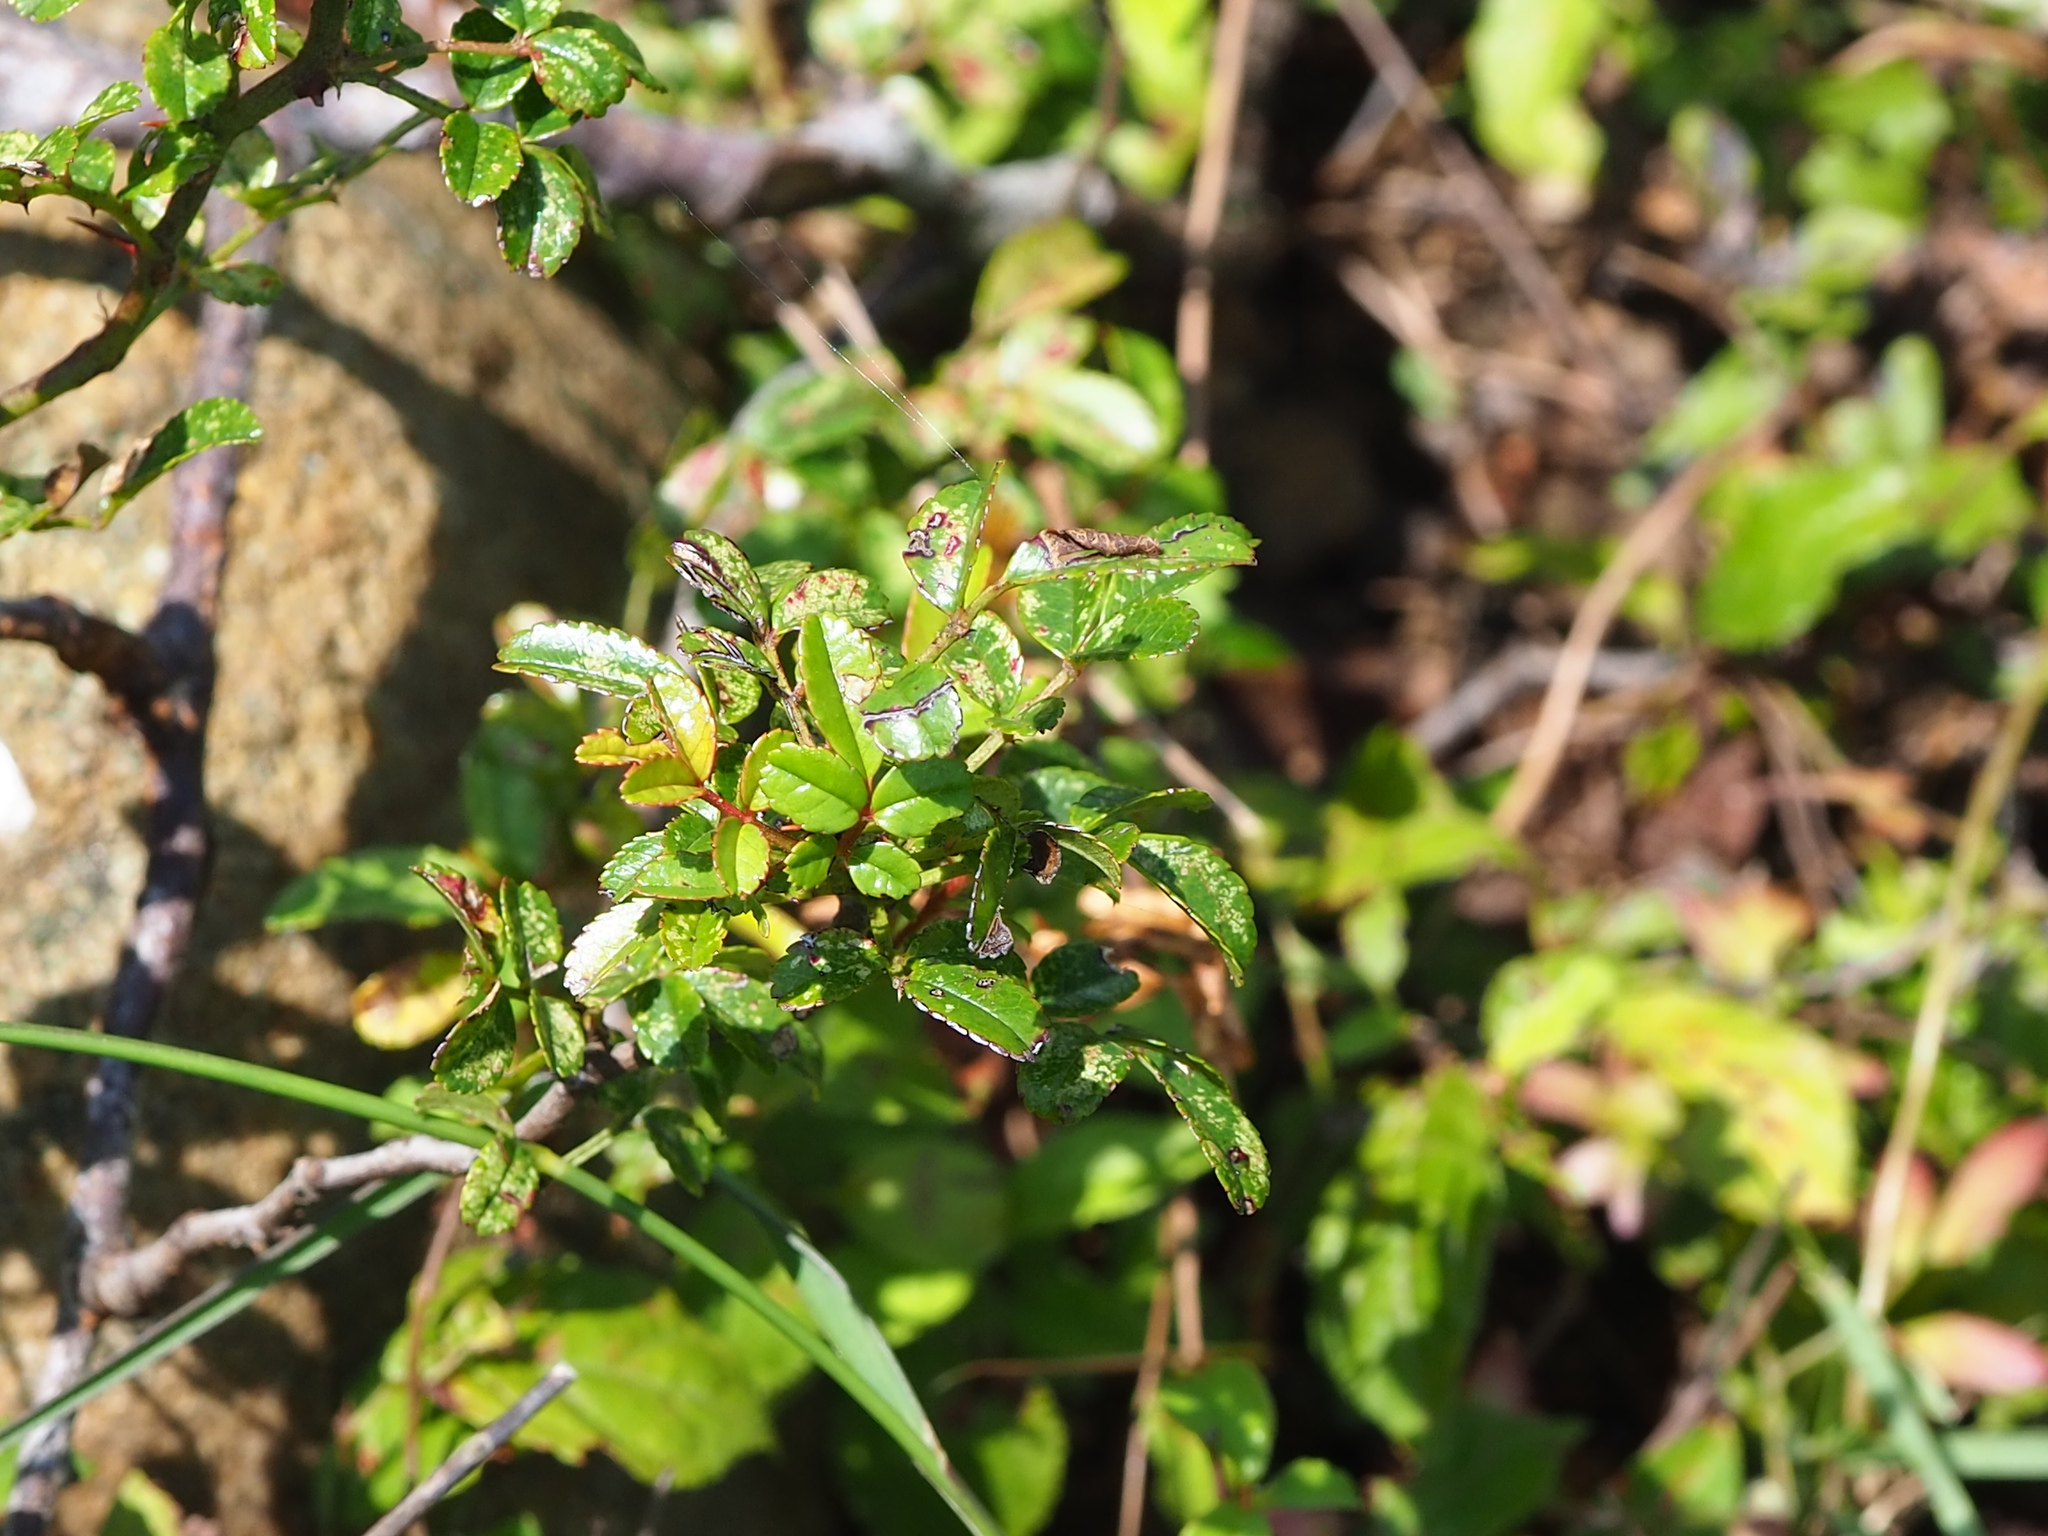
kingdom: Plantae
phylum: Tracheophyta
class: Magnoliopsida
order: Rosales
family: Rosaceae
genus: Rosa
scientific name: Rosa bracteata
